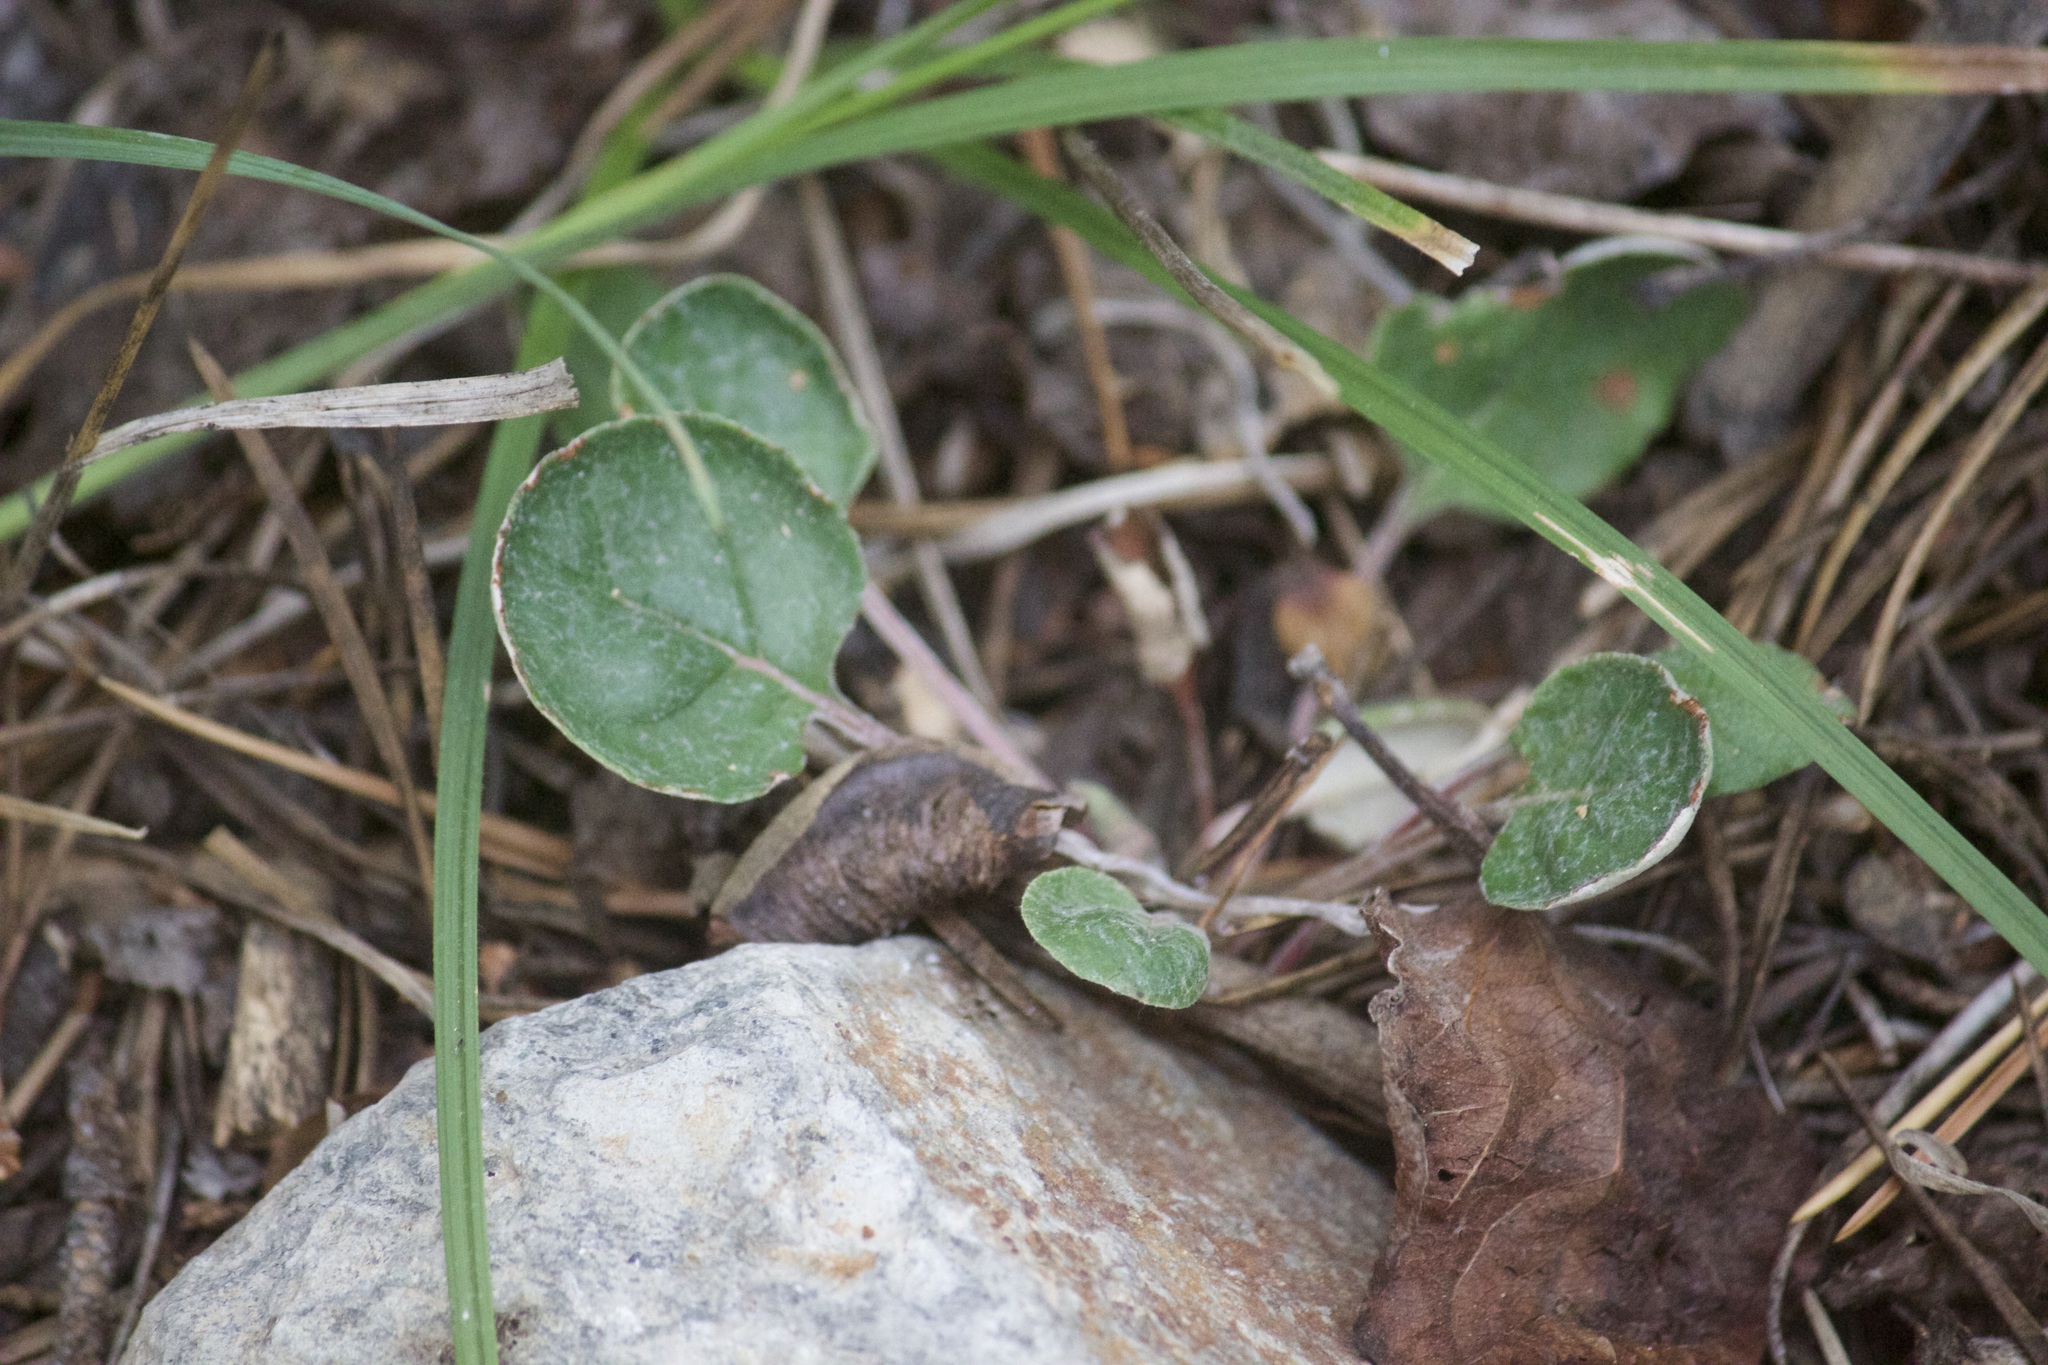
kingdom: Plantae
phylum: Tracheophyta
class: Magnoliopsida
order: Caryophyllales
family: Polygonaceae
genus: Eriogonum
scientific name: Eriogonum nudum
